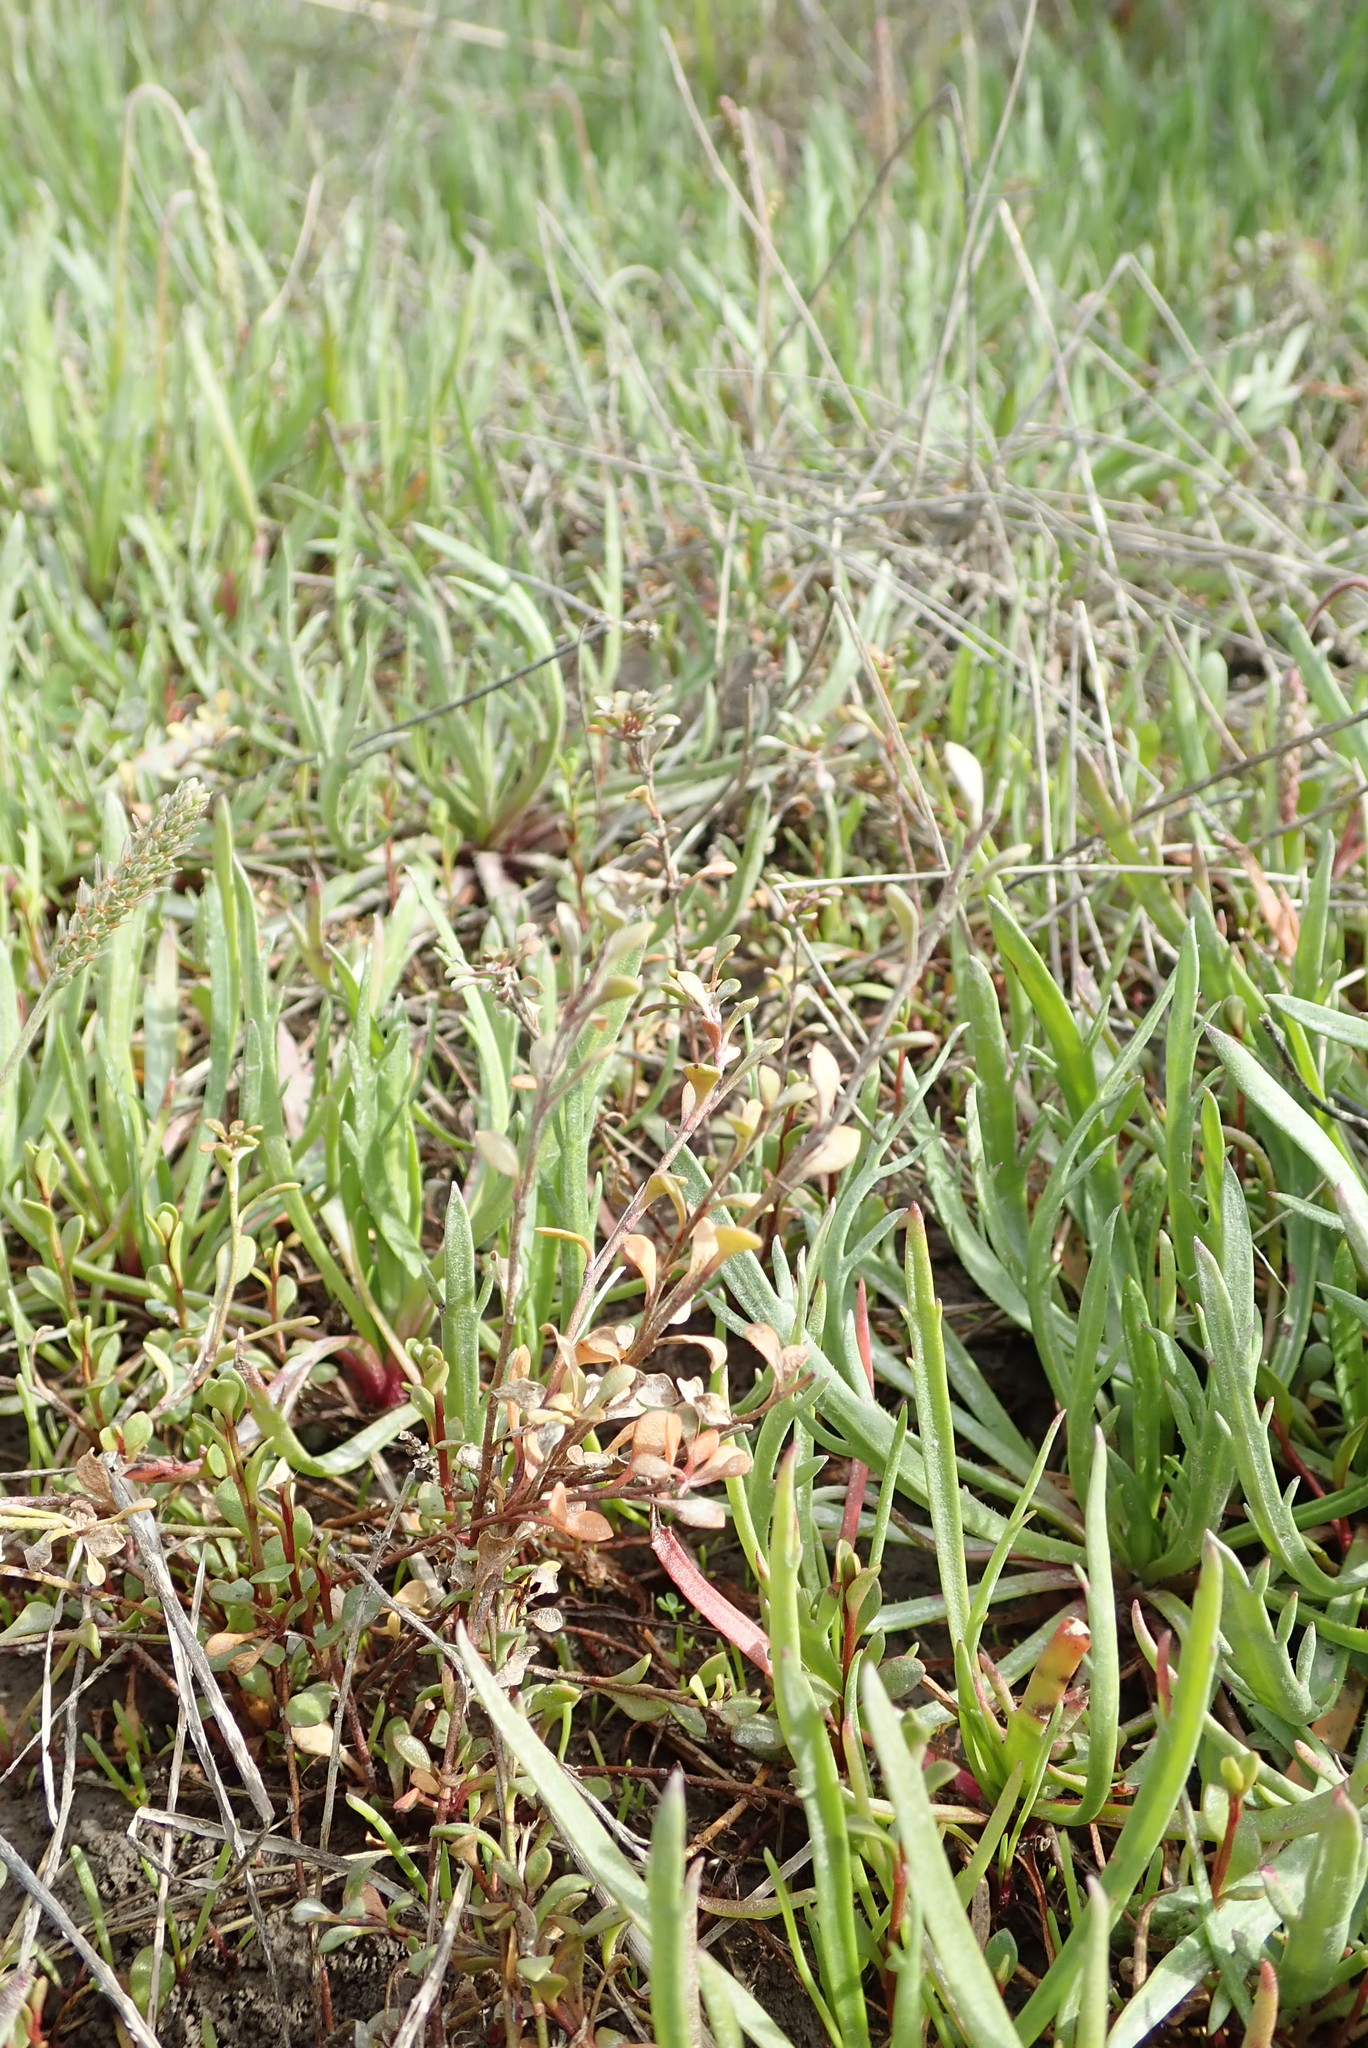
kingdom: Plantae
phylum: Tracheophyta
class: Magnoliopsida
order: Ericales
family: Primulaceae
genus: Samolus
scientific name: Samolus repens
